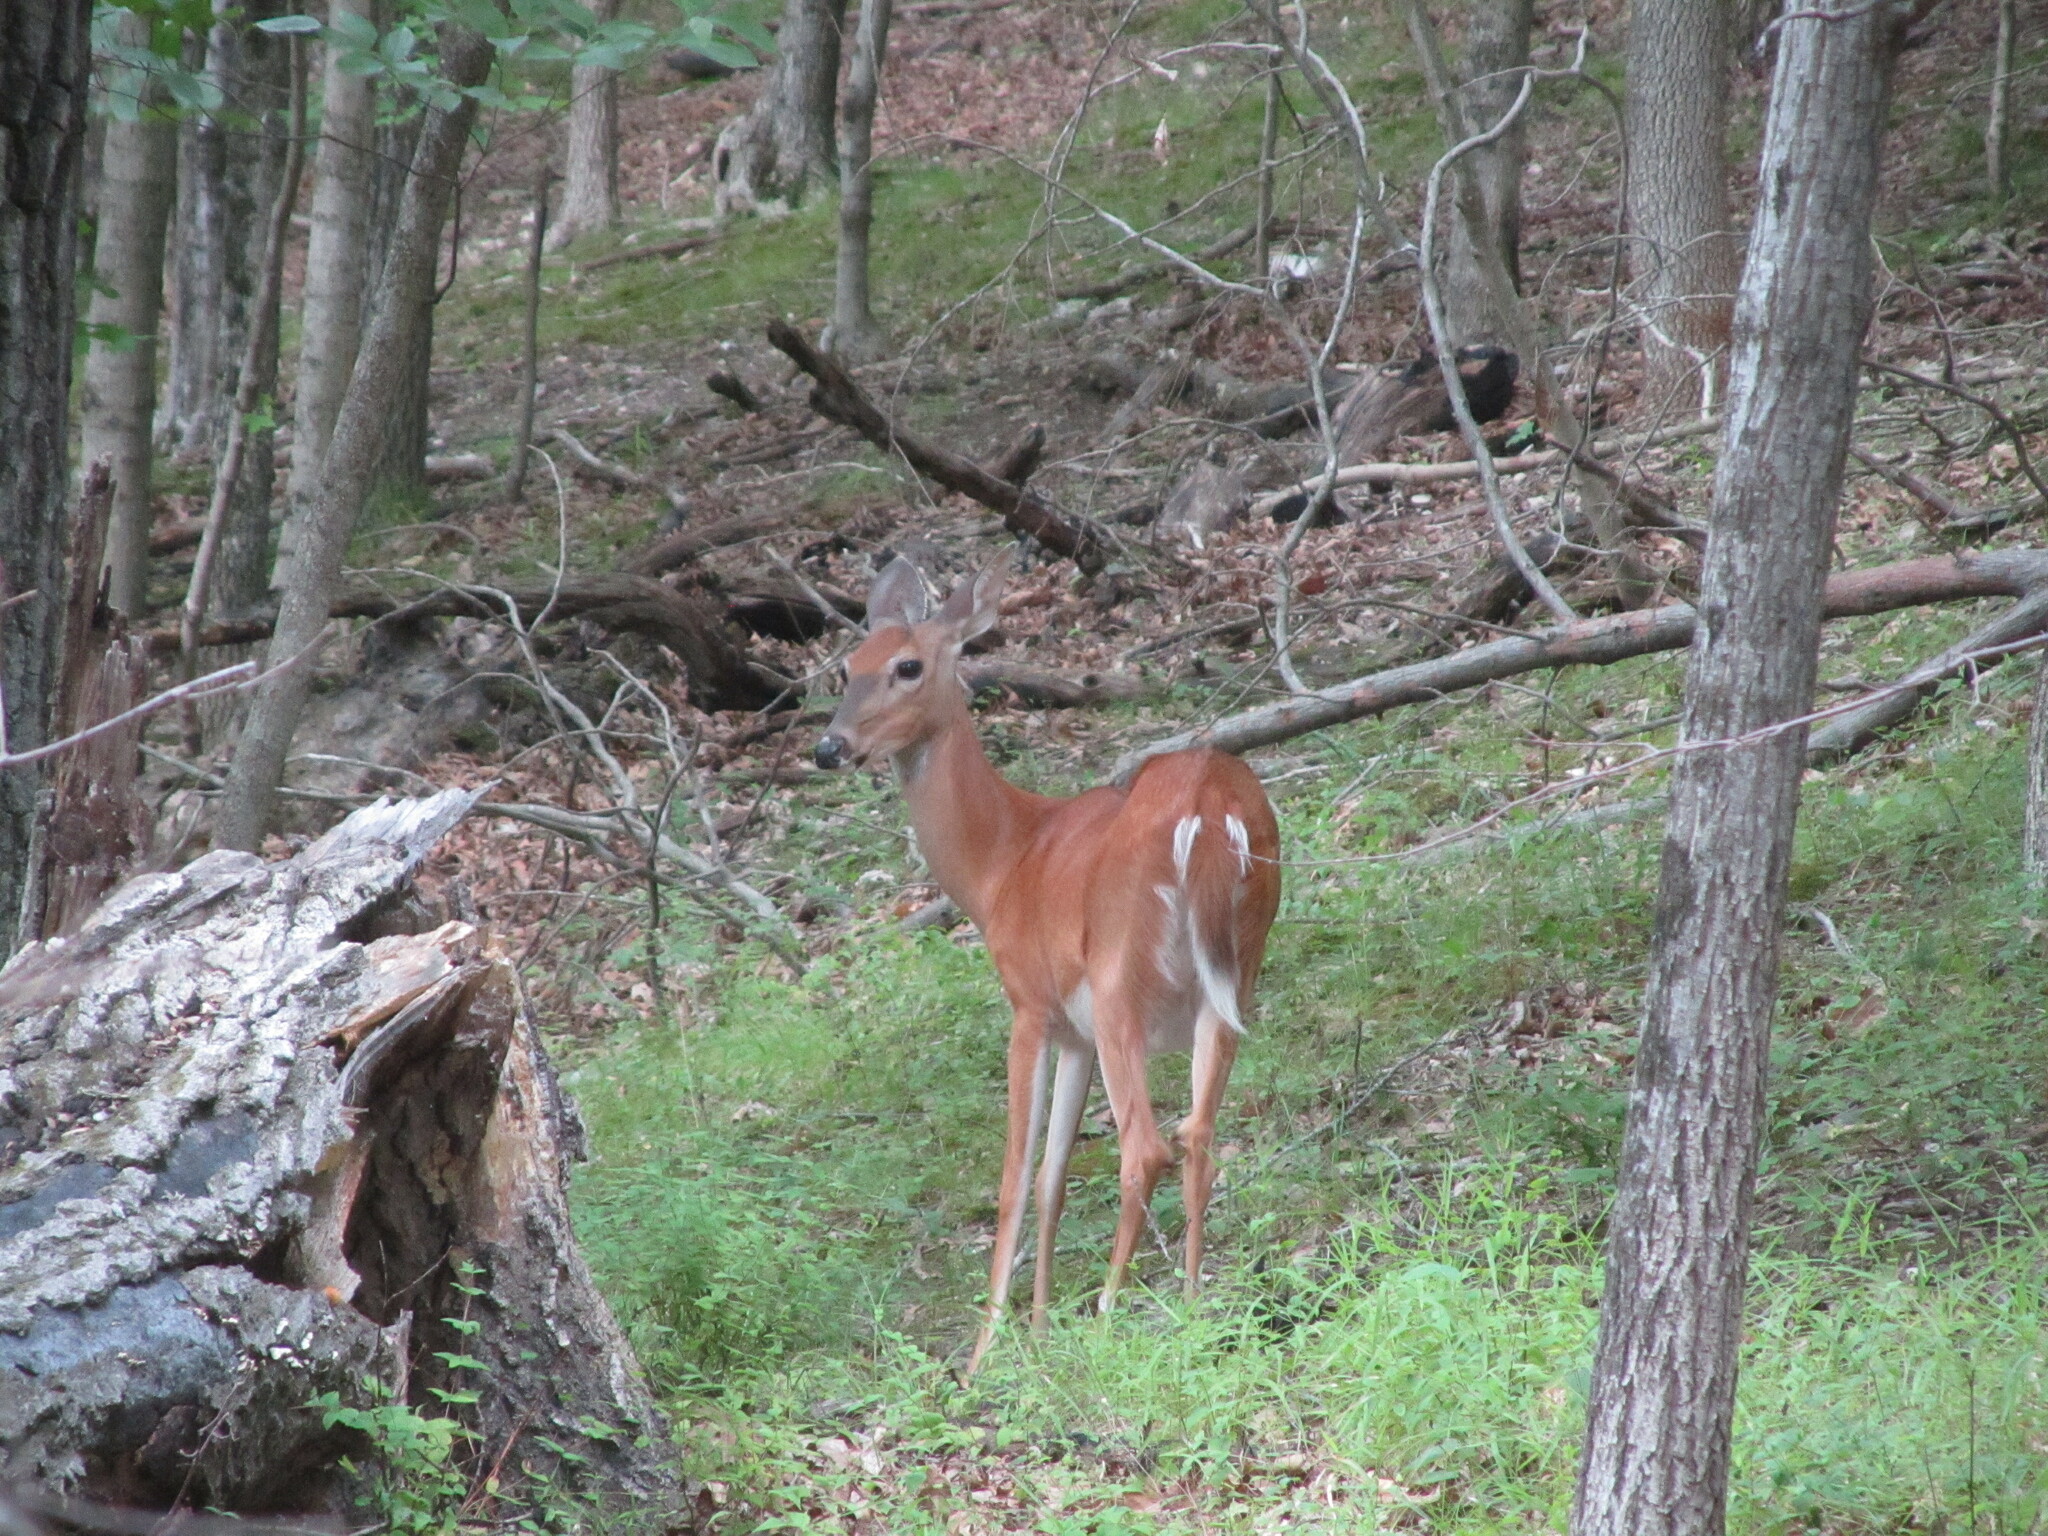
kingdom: Animalia
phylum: Chordata
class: Mammalia
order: Artiodactyla
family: Cervidae
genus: Odocoileus
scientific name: Odocoileus virginianus
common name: White-tailed deer
